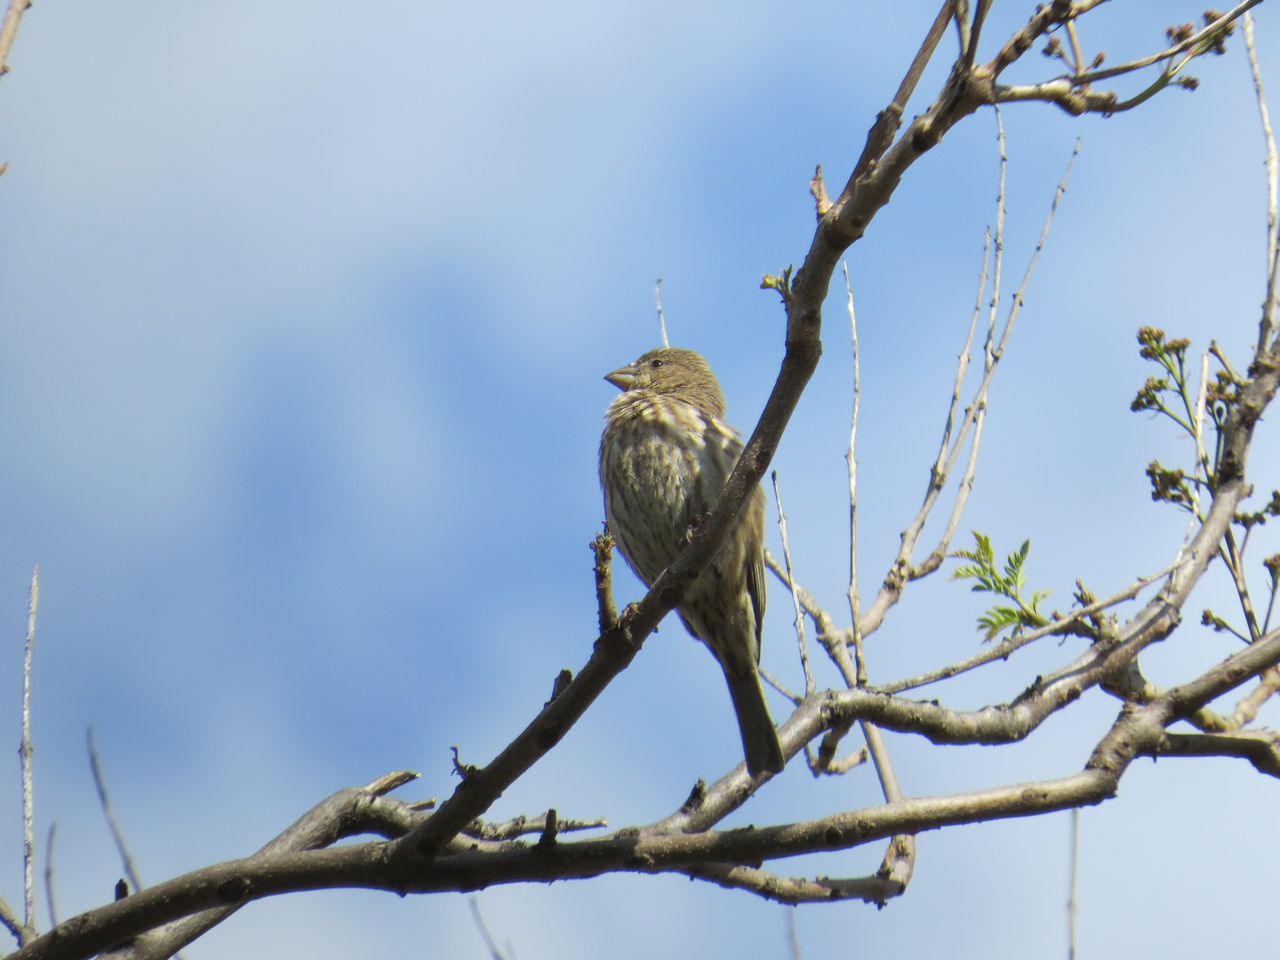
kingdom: Animalia
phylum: Chordata
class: Aves
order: Passeriformes
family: Fringillidae
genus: Haemorhous
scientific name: Haemorhous mexicanus
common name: House finch
